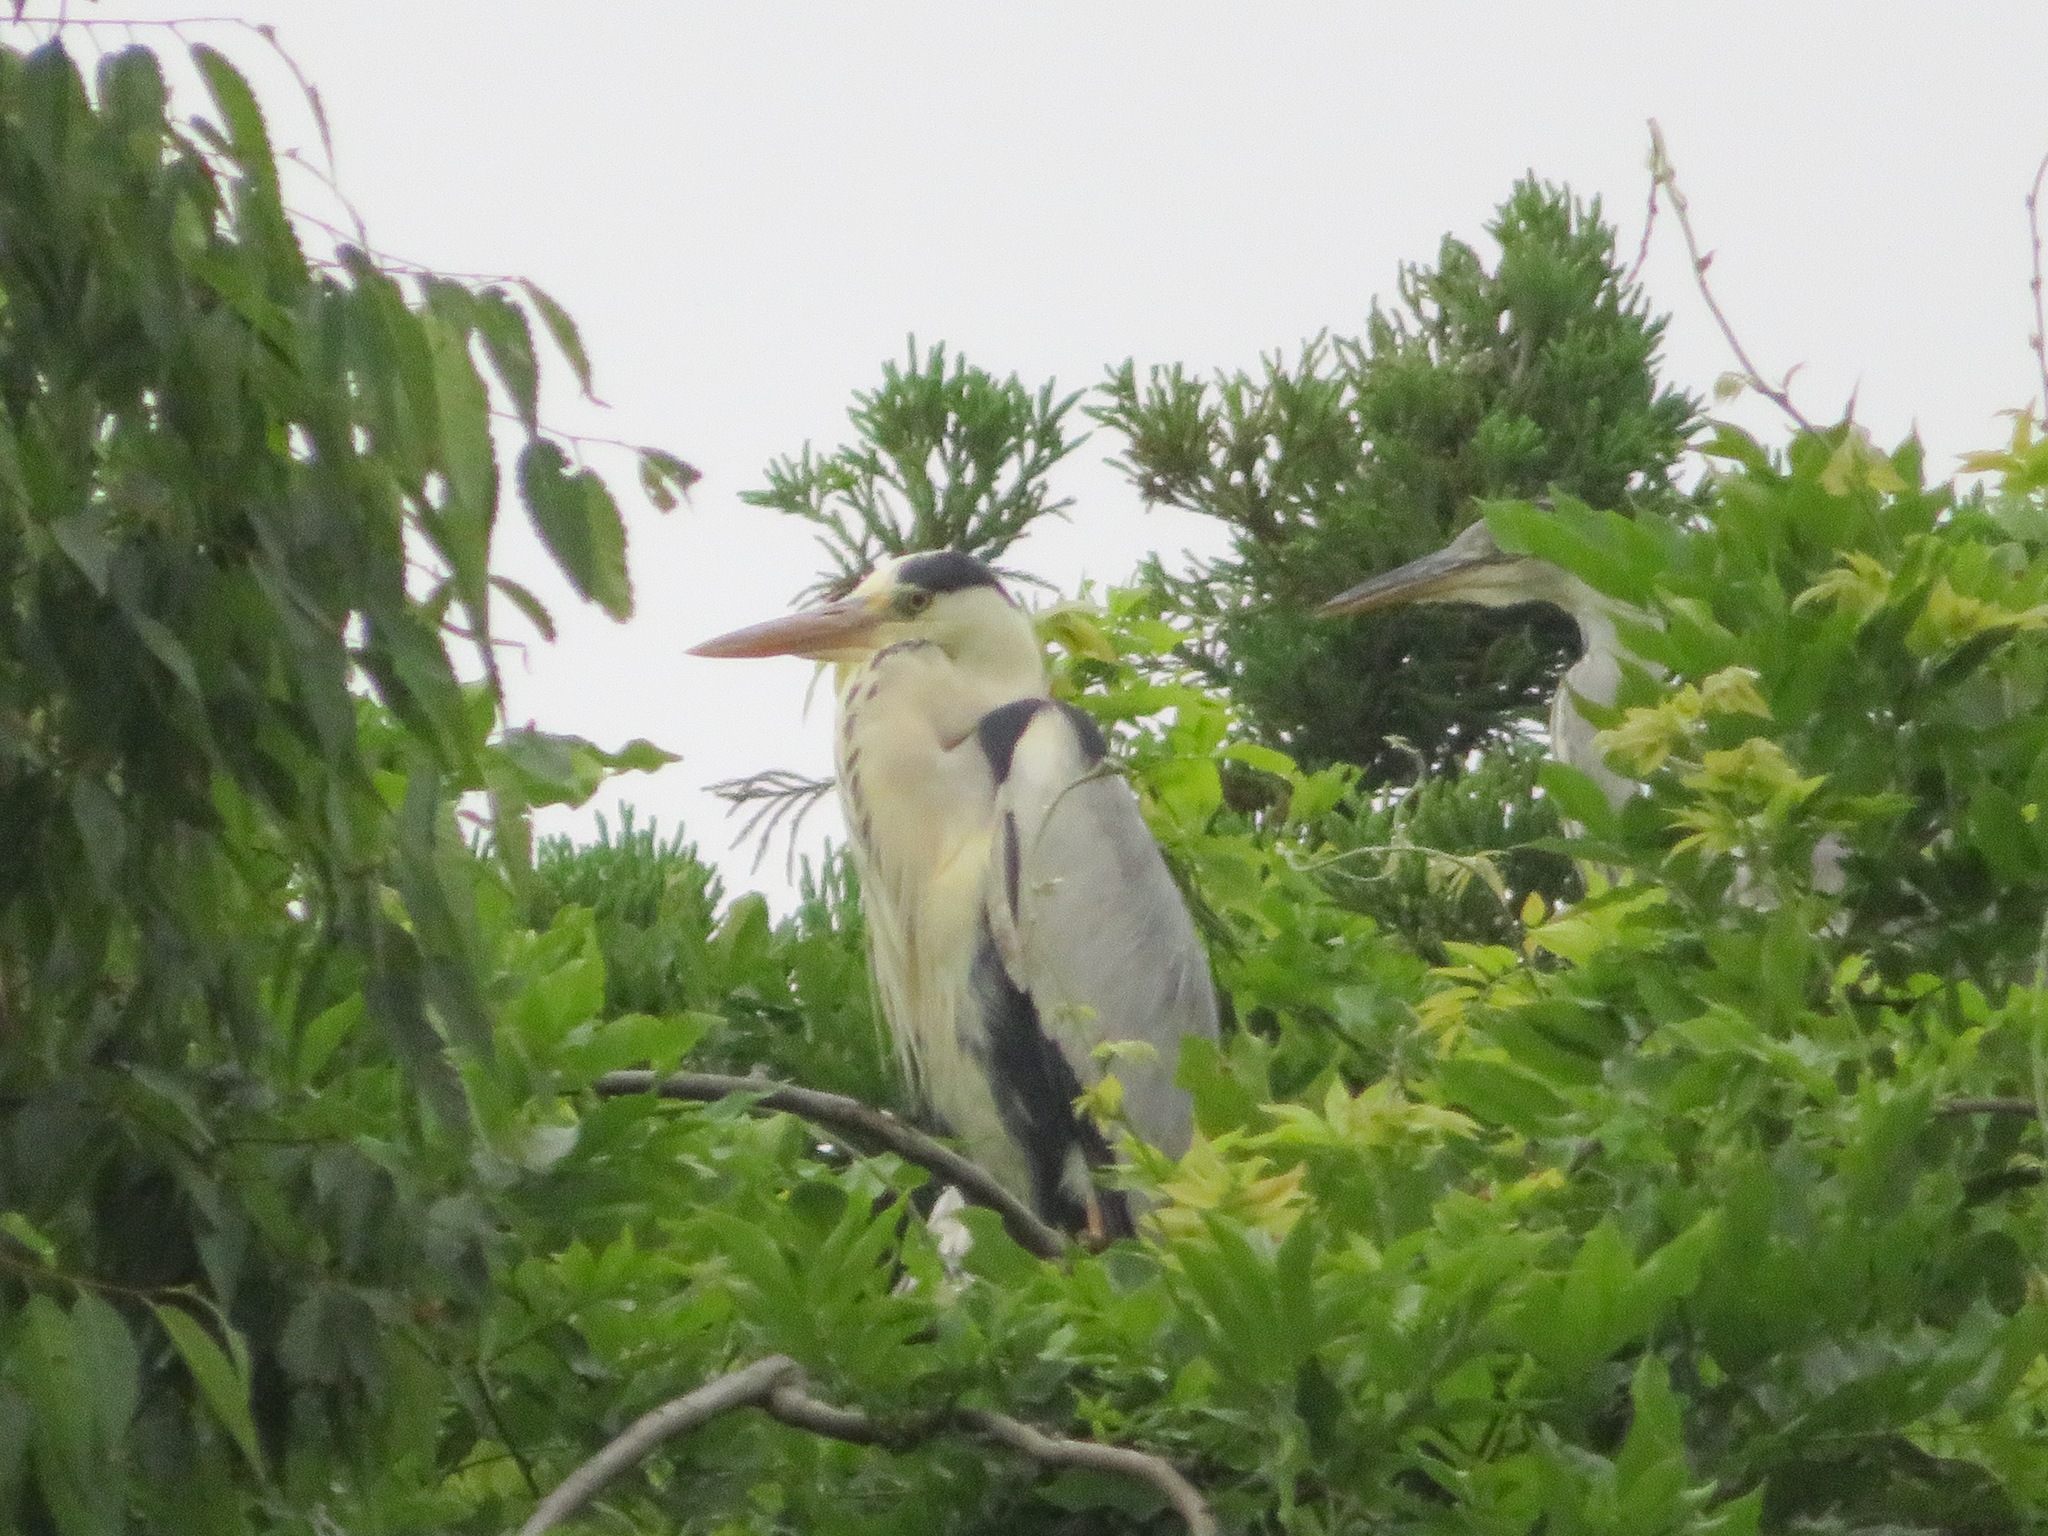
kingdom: Animalia
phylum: Chordata
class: Aves
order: Pelecaniformes
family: Ardeidae
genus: Ardea
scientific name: Ardea cinerea
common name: Grey heron
